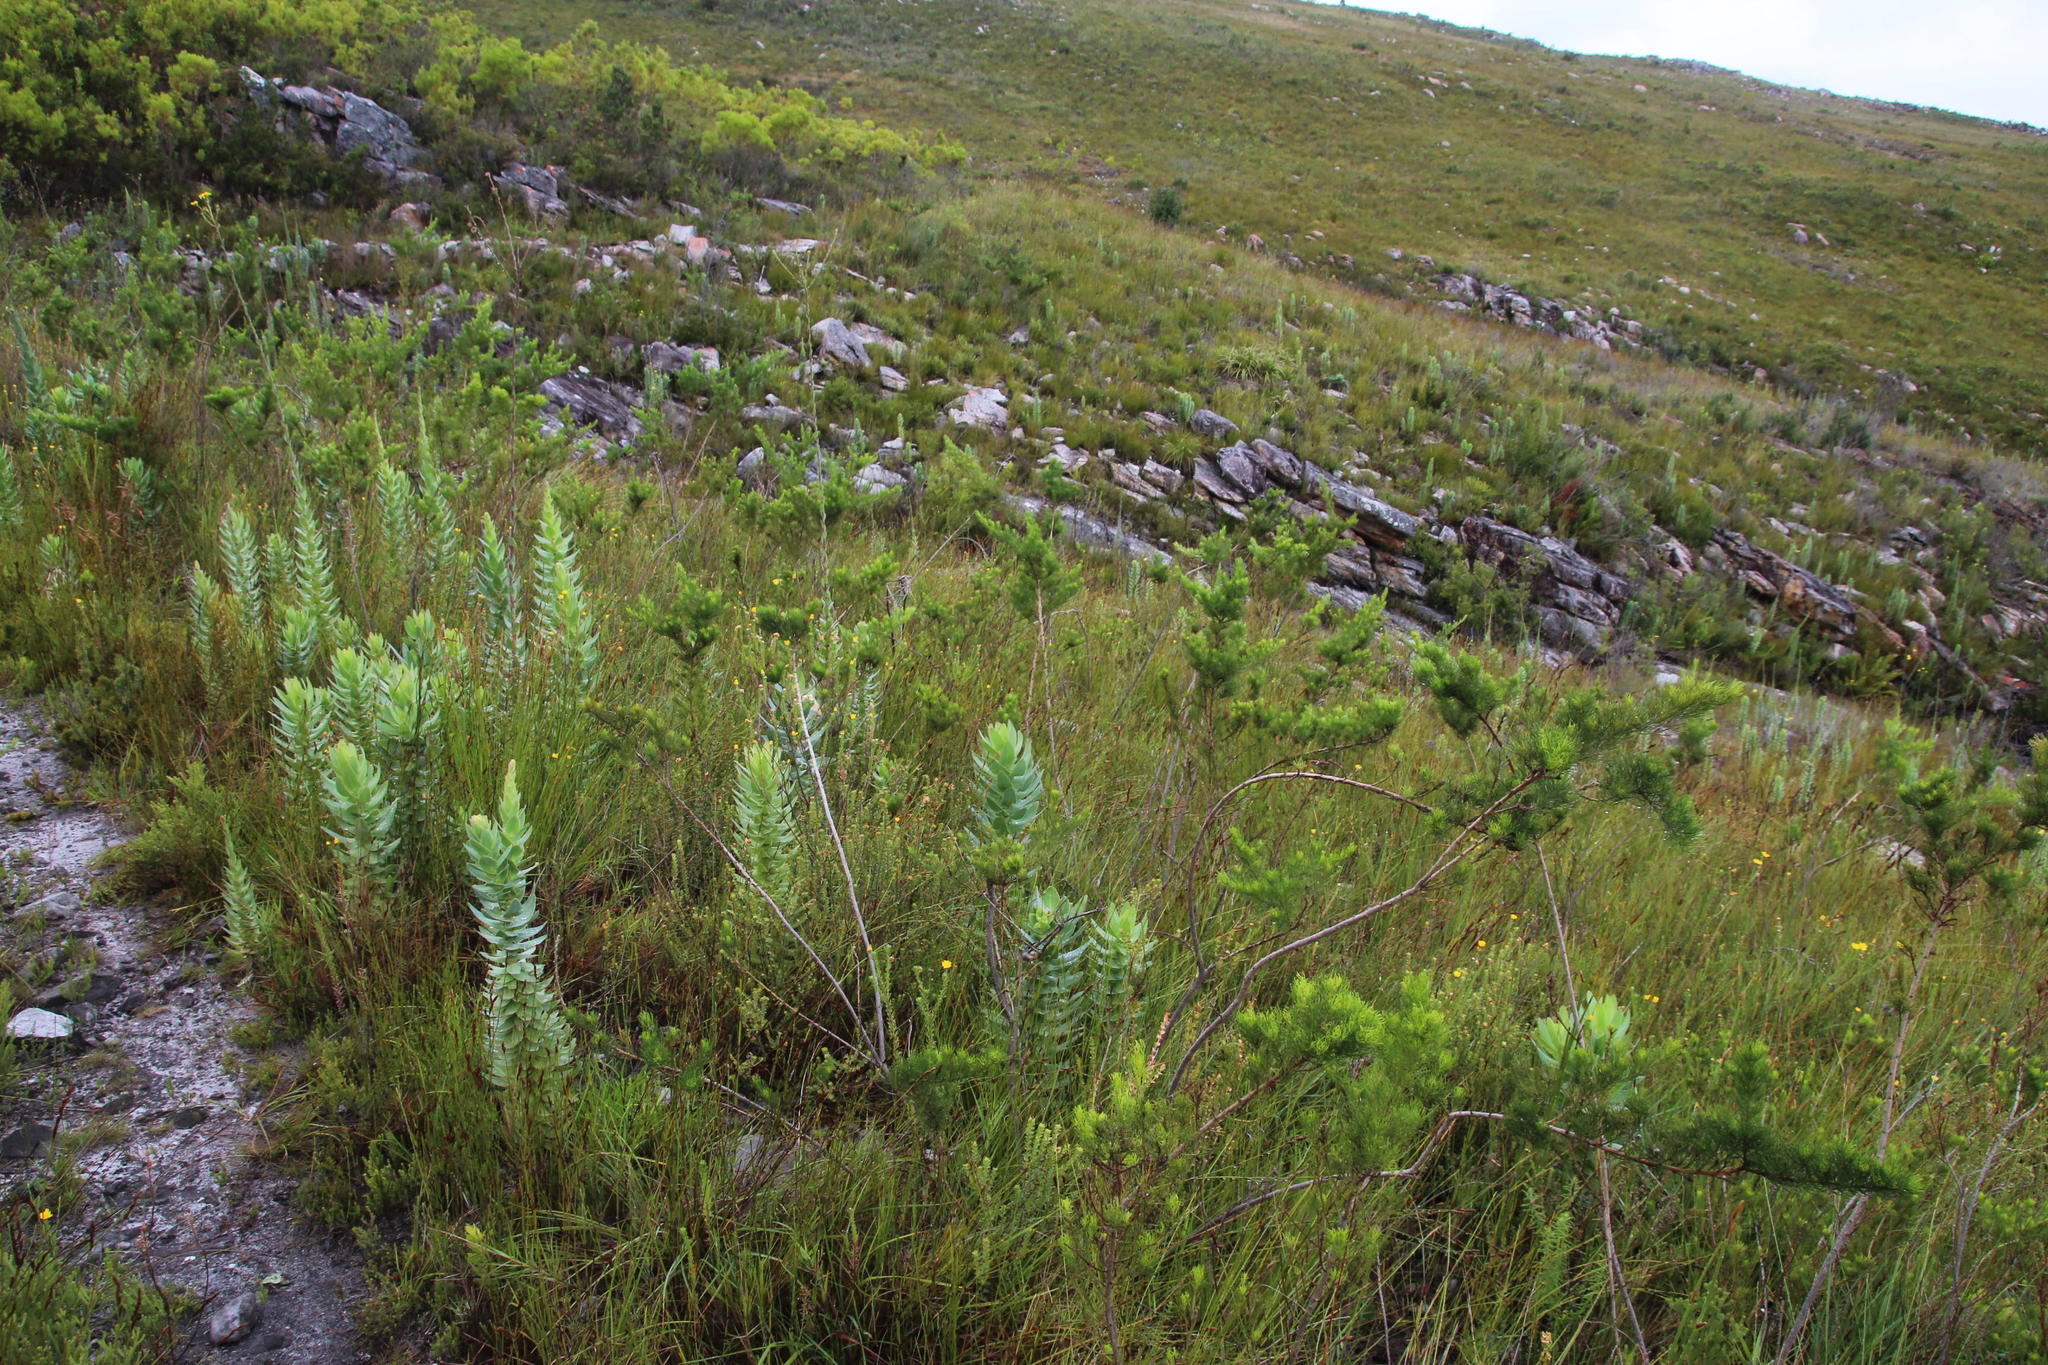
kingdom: Plantae
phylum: Tracheophyta
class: Magnoliopsida
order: Asterales
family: Asteraceae
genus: Othonna
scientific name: Othonna quinquedentata
